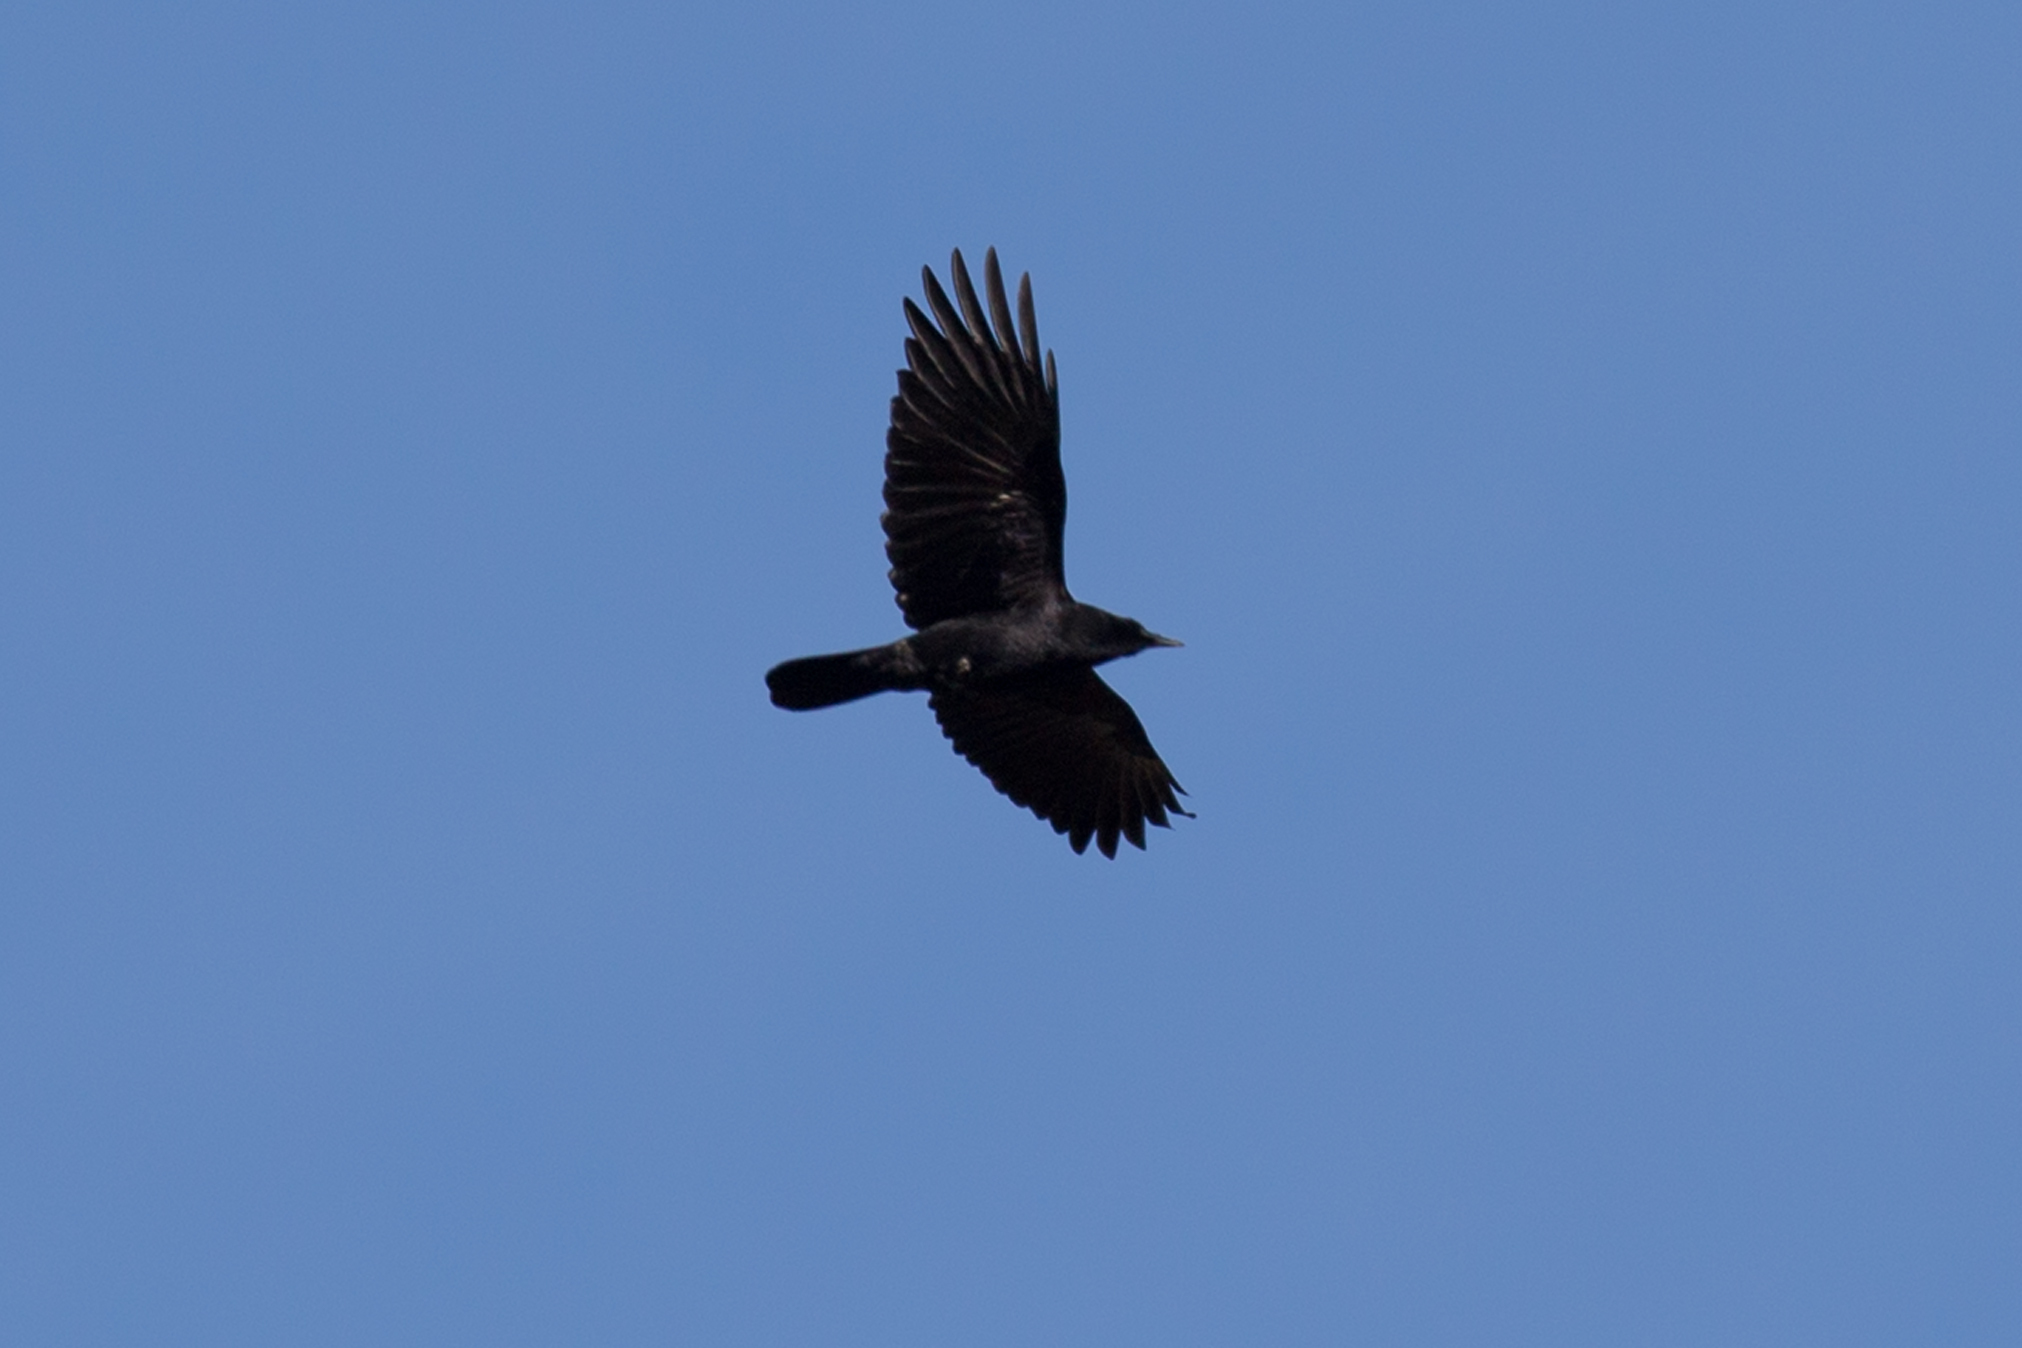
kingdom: Animalia
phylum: Chordata
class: Aves
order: Passeriformes
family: Corvidae
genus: Corvus
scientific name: Corvus brachyrhynchos
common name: American crow
